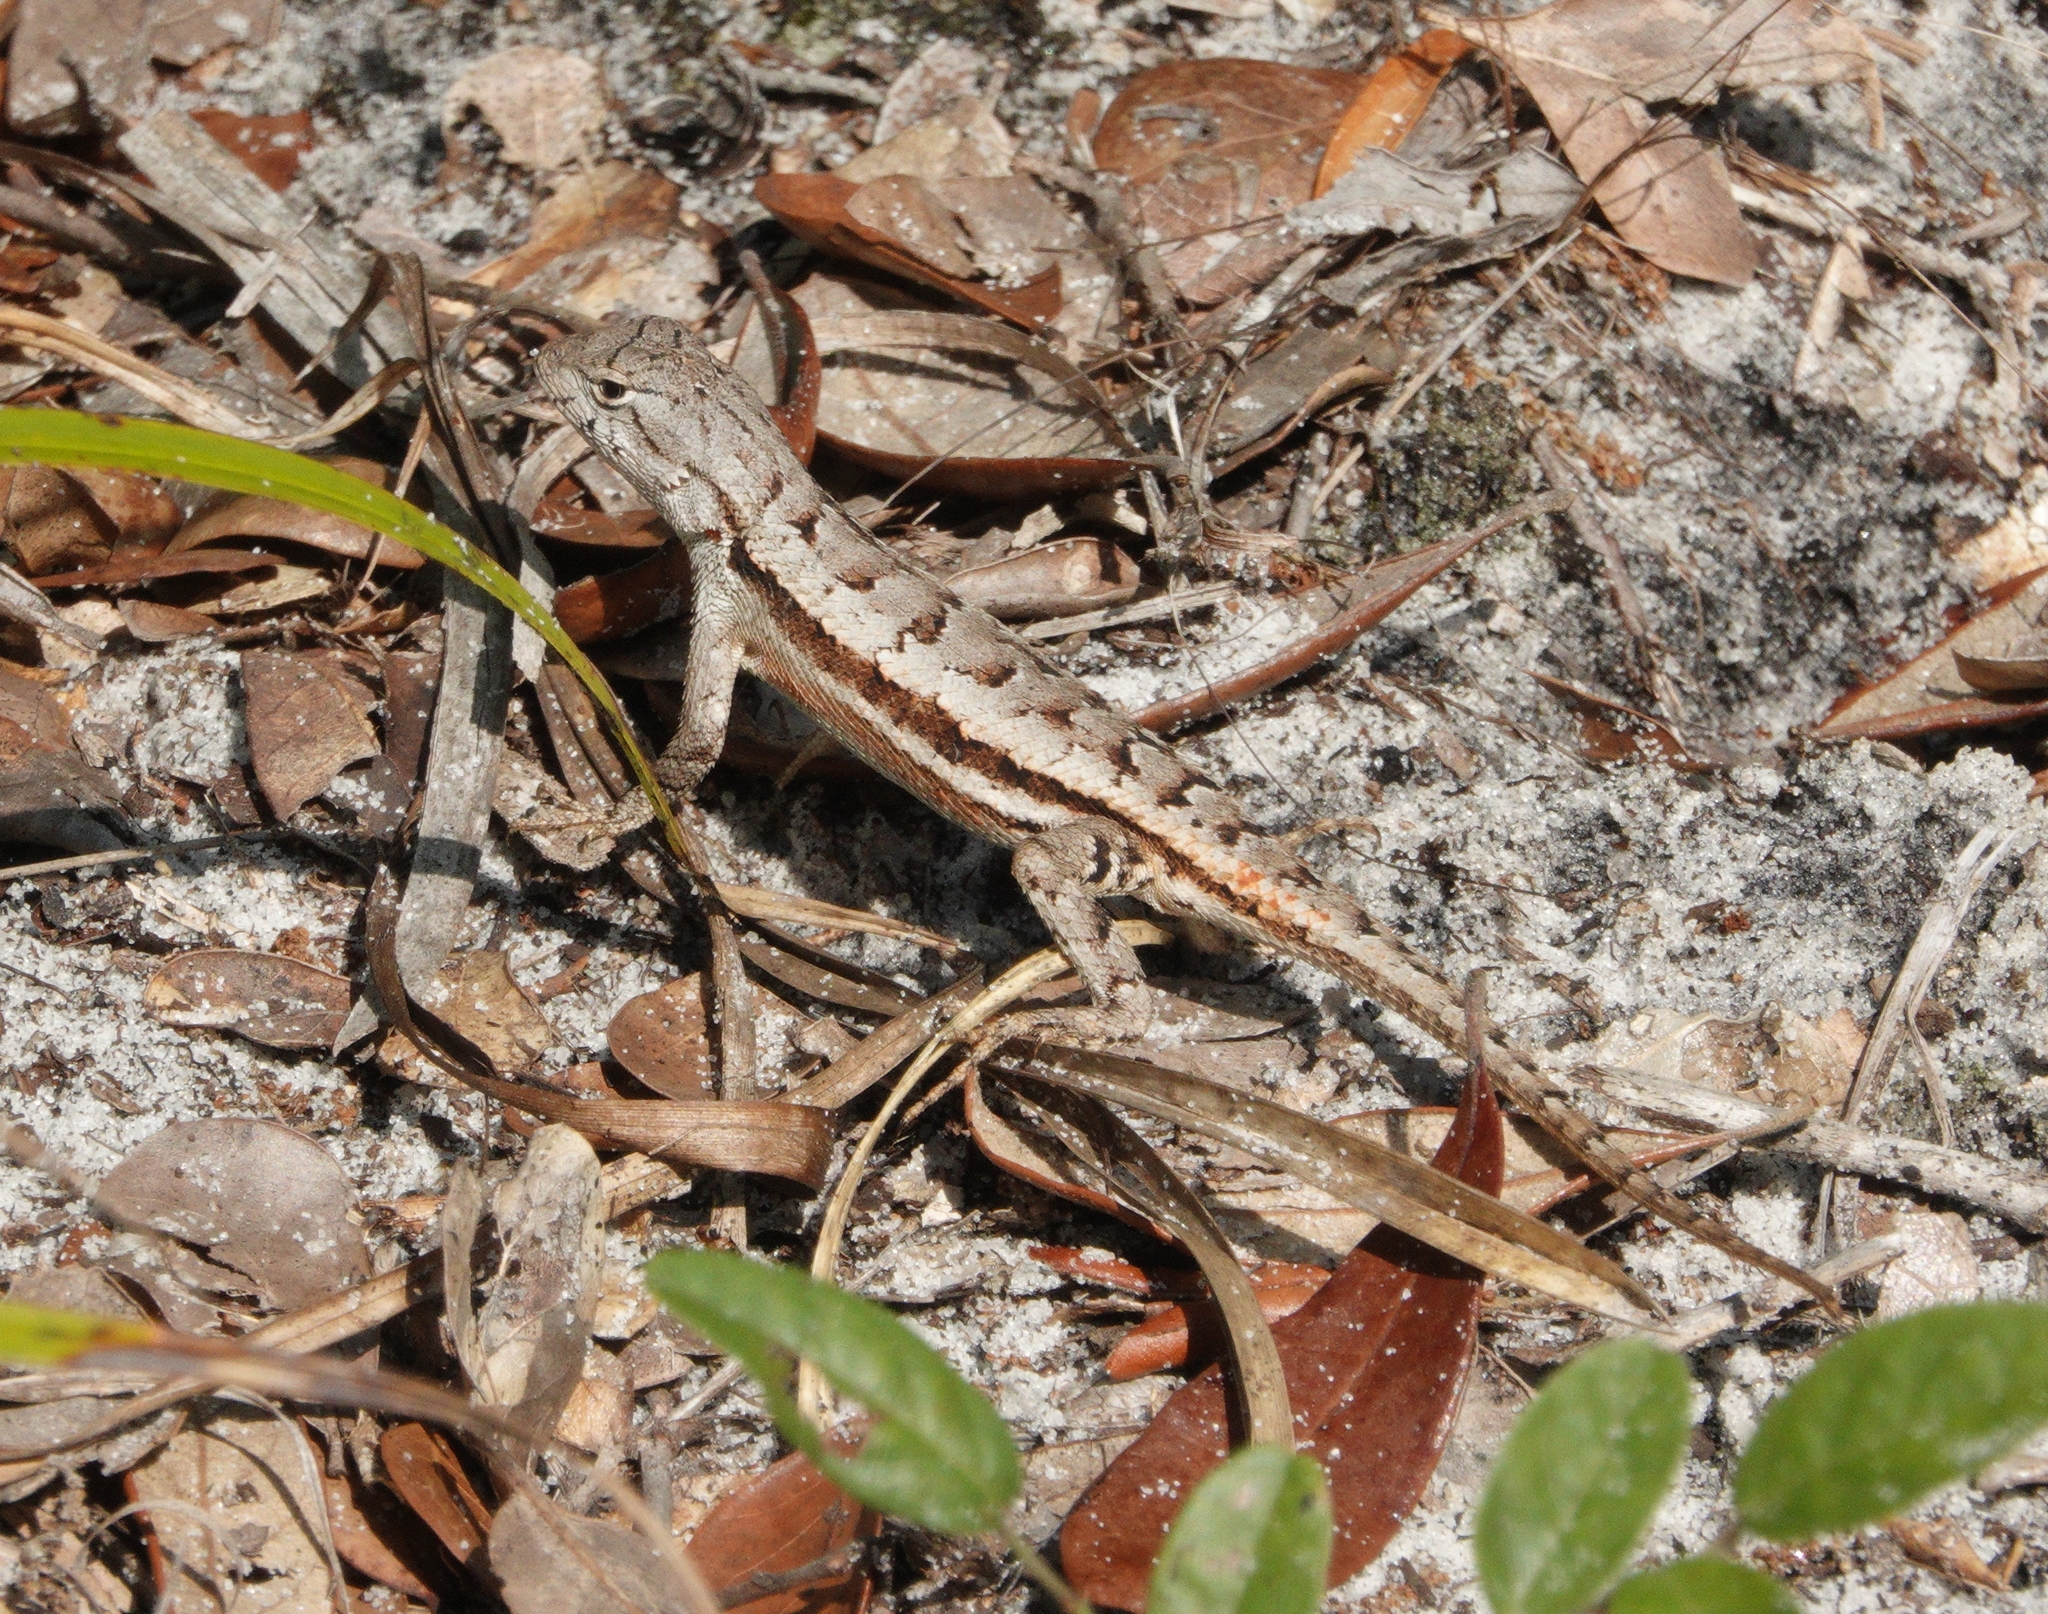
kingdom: Animalia
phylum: Chordata
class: Squamata
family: Phrynosomatidae
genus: Sceloporus
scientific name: Sceloporus woodi
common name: Florida scrub lizard
